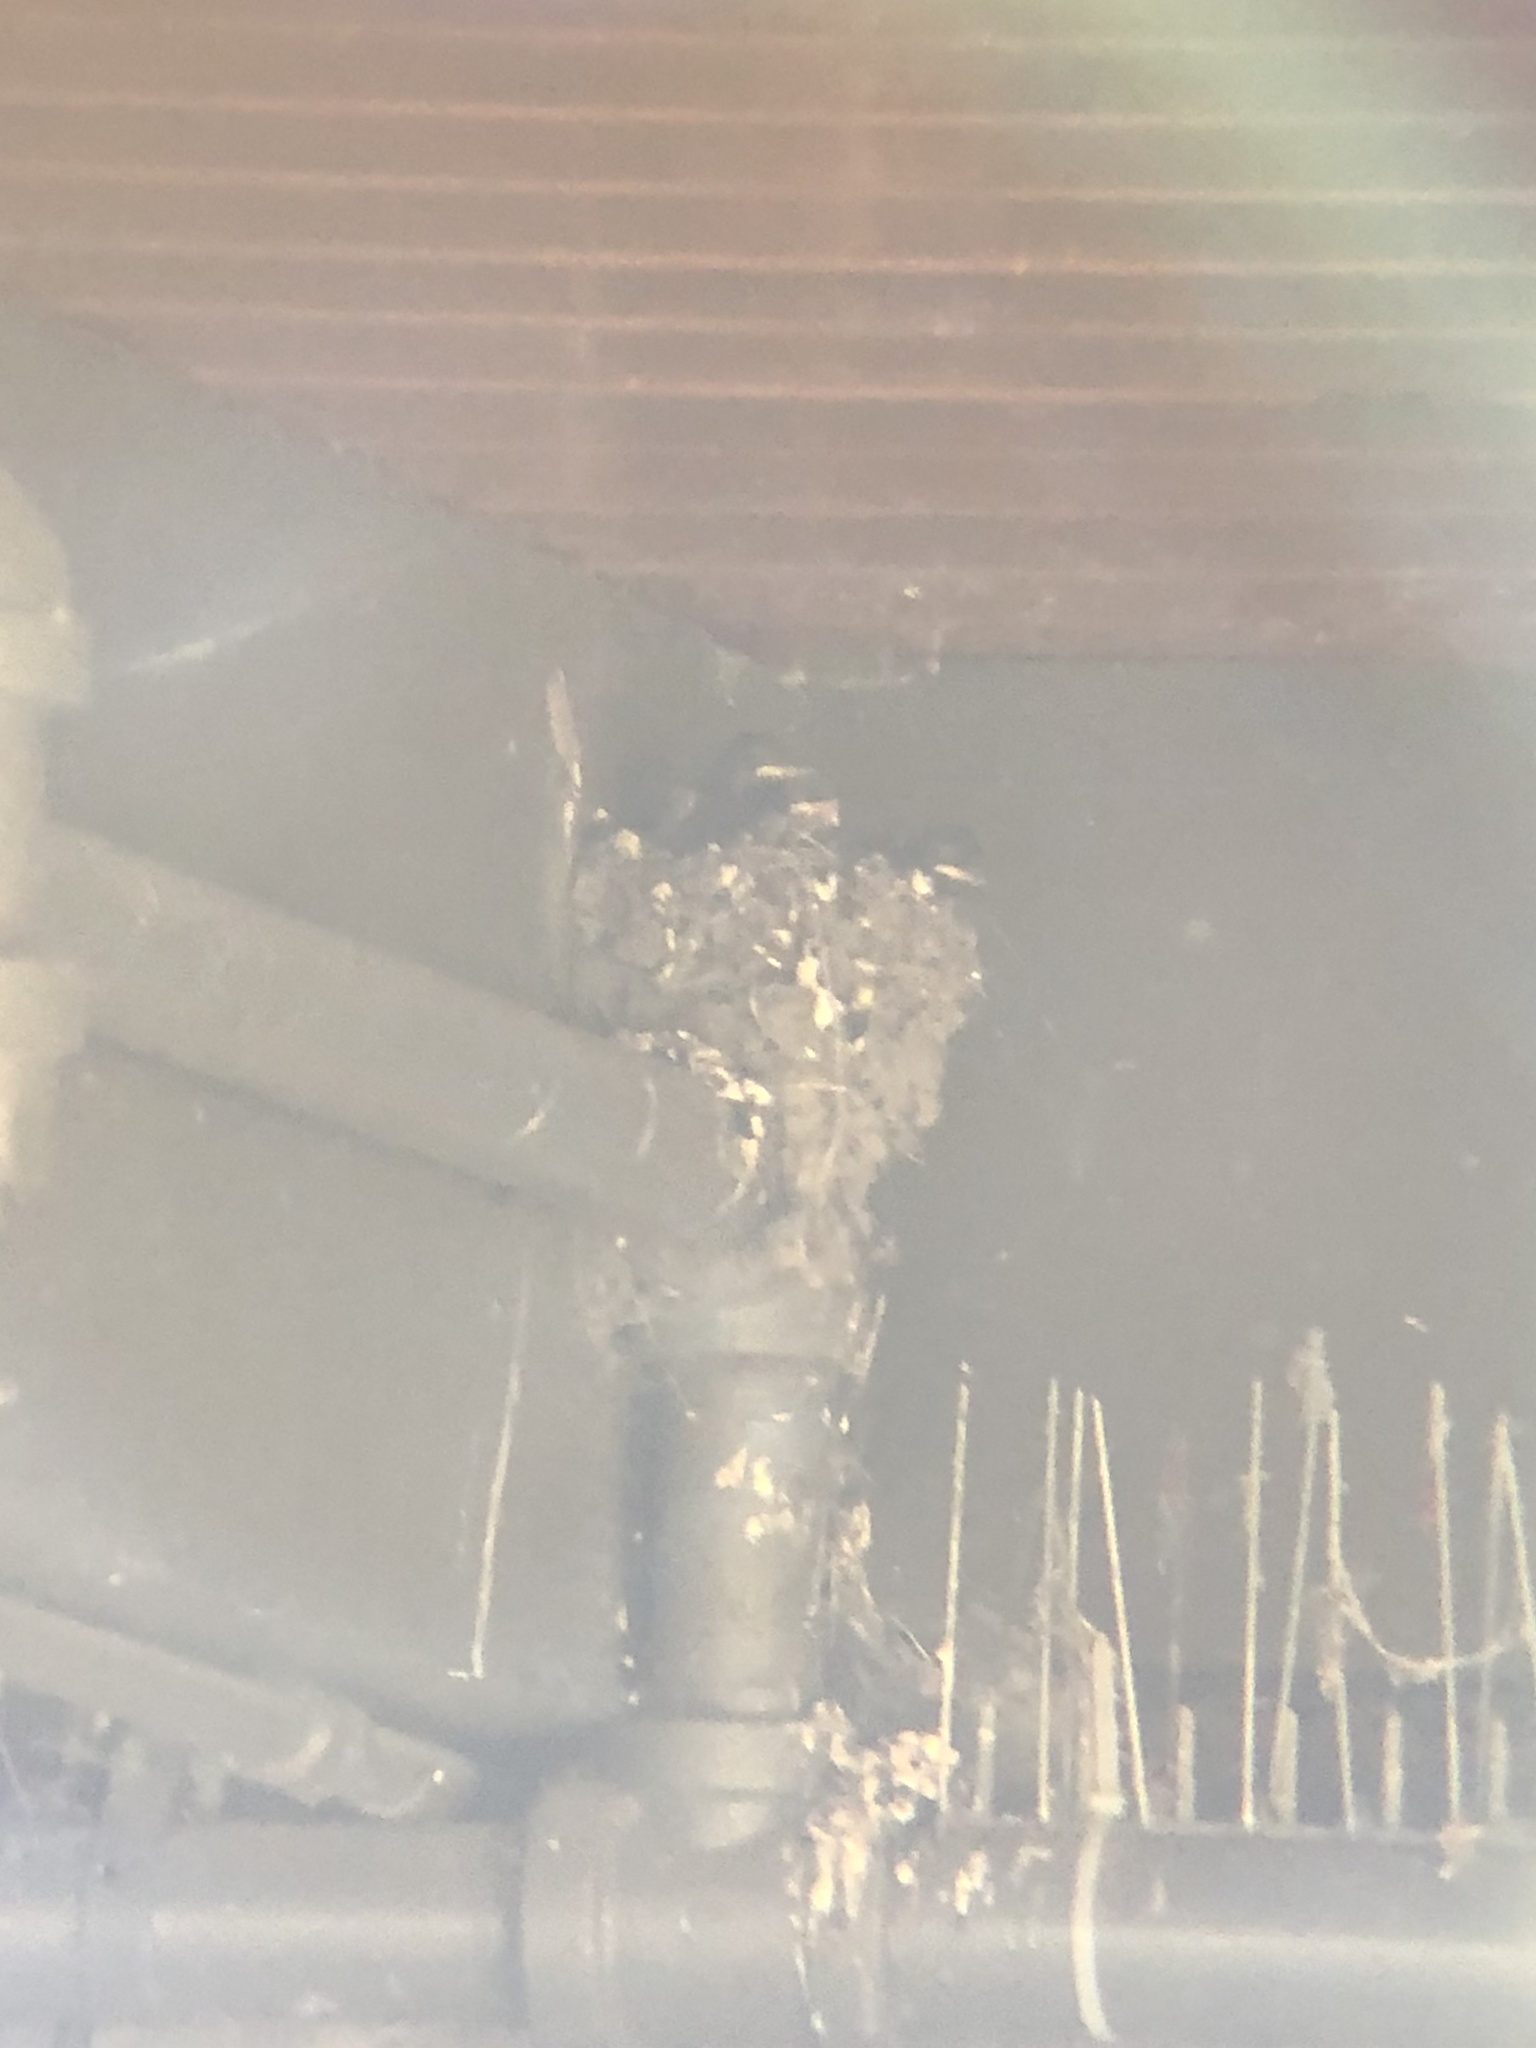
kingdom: Animalia
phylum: Chordata
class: Aves
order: Passeriformes
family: Tyrannidae
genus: Sayornis
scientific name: Sayornis nigricans
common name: Black phoebe
